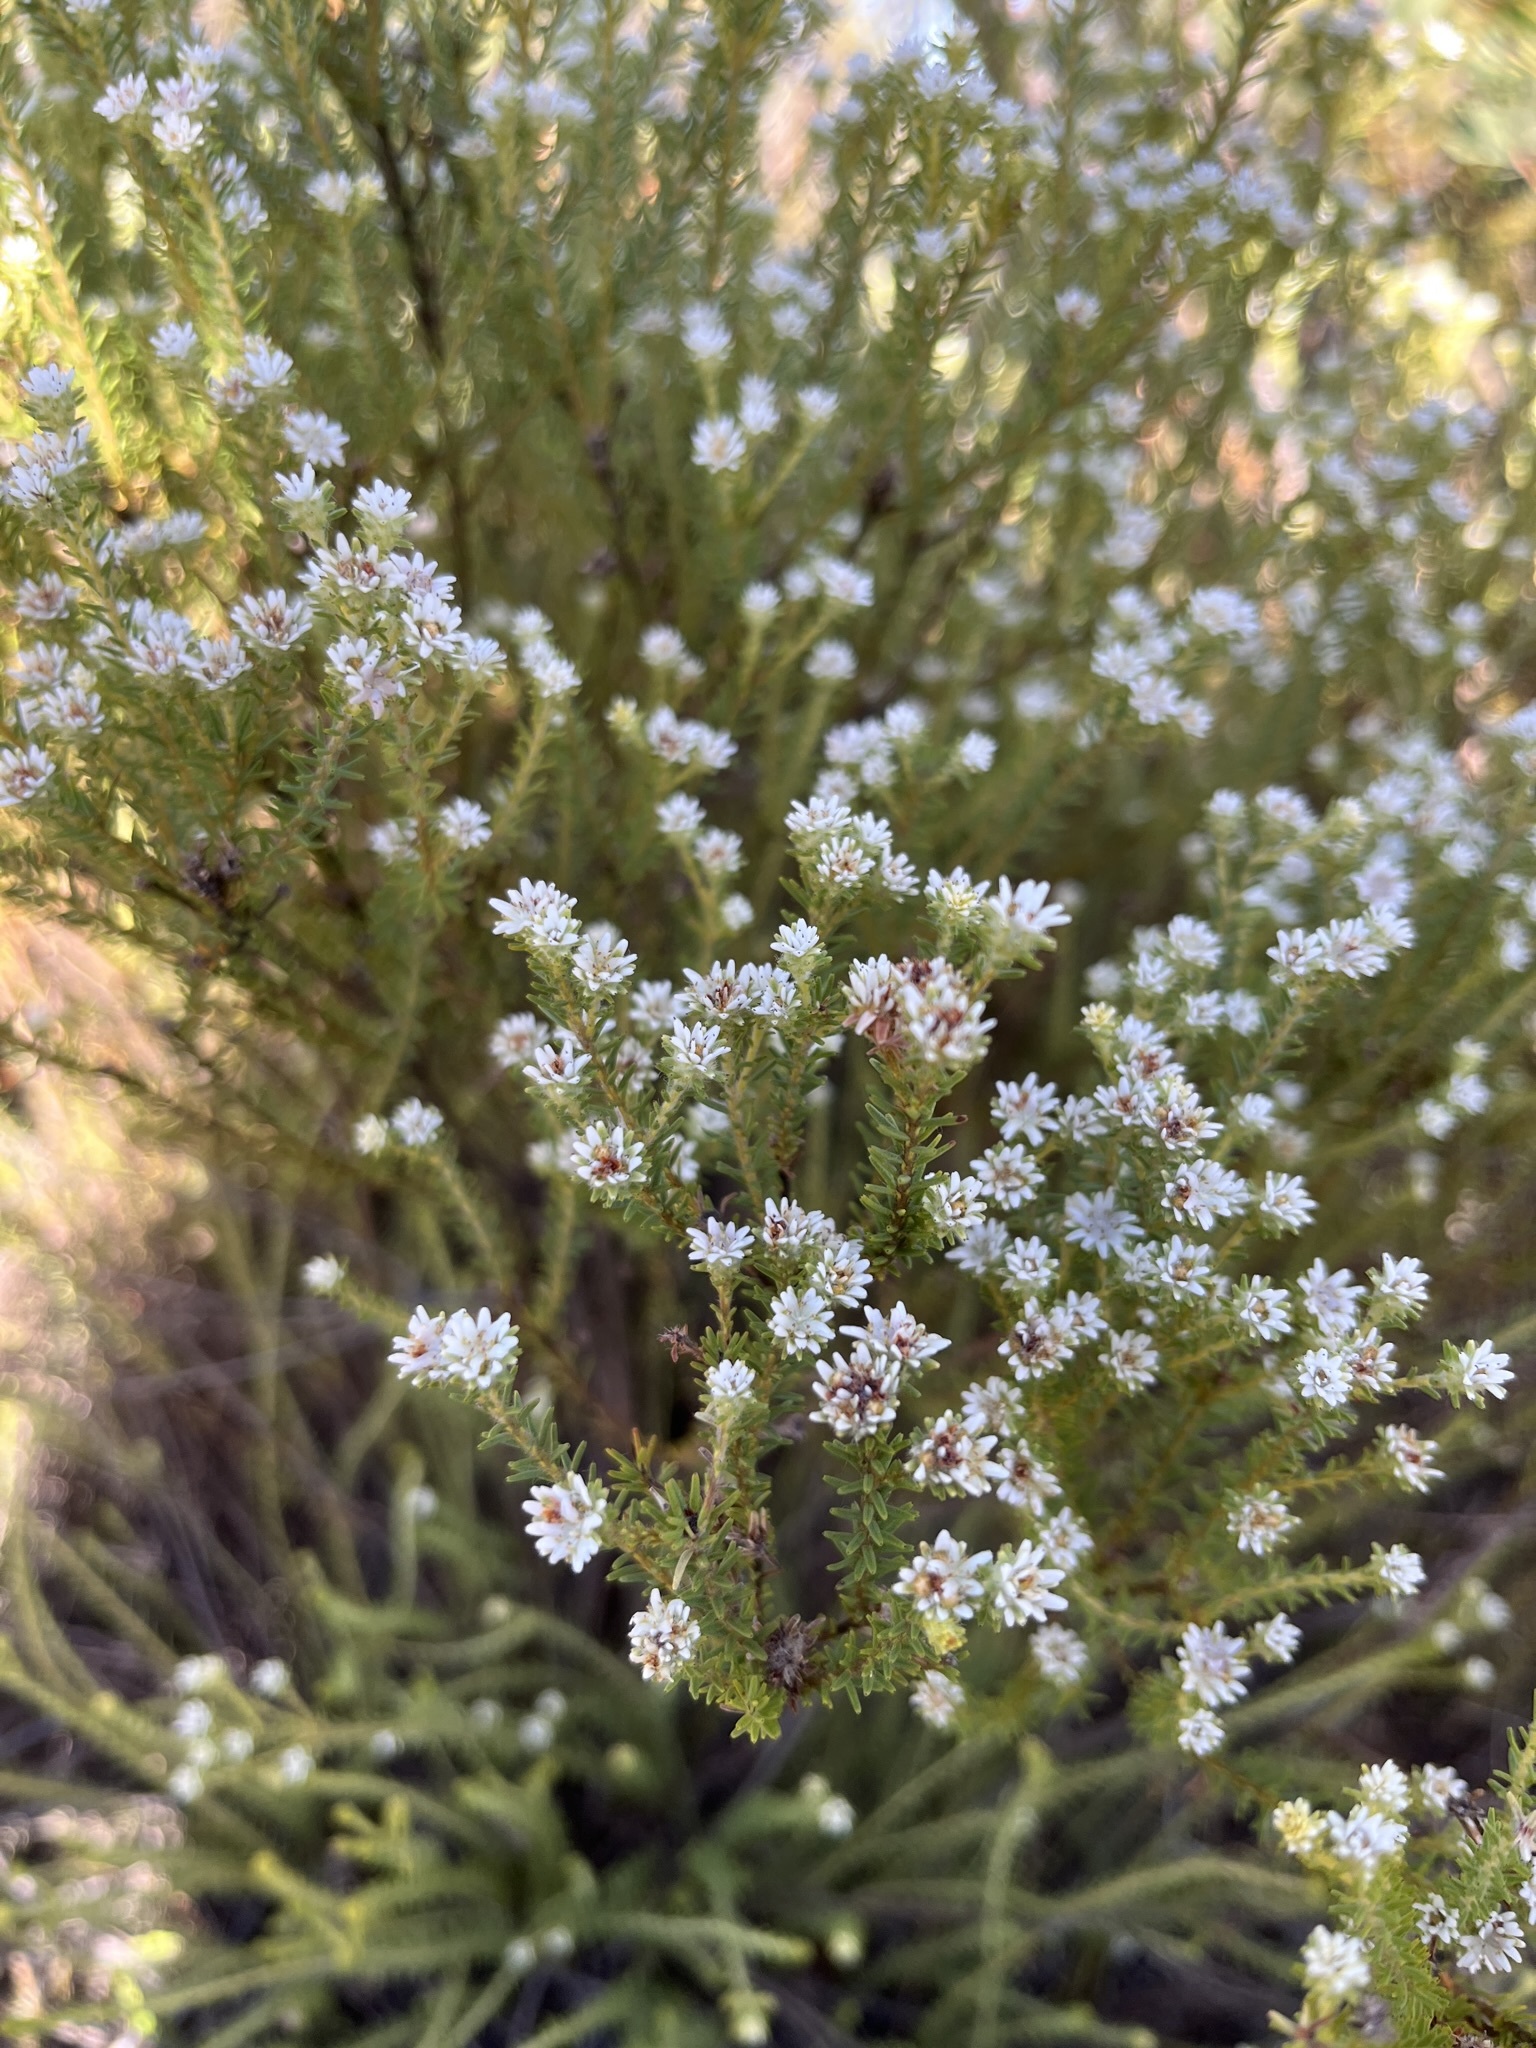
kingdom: Plantae
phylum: Tracheophyta
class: Magnoliopsida
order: Bruniales
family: Bruniaceae
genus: Staavia
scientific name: Staavia radiata
